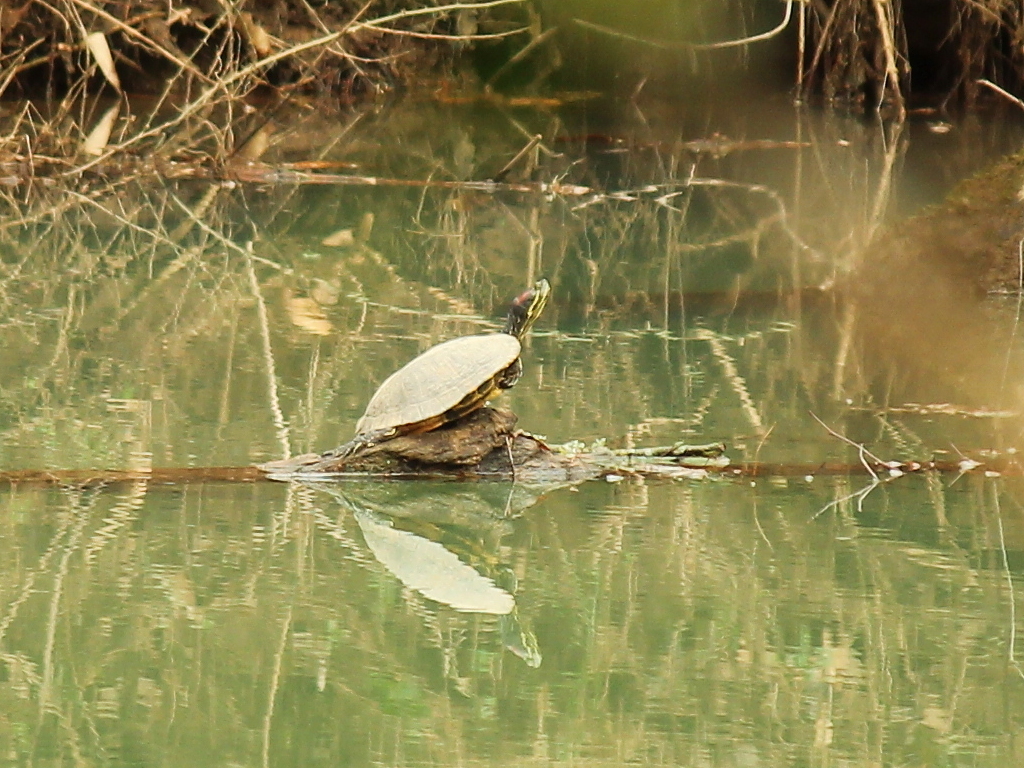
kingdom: Animalia
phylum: Chordata
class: Testudines
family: Emydidae
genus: Trachemys
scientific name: Trachemys scripta
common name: Slider
